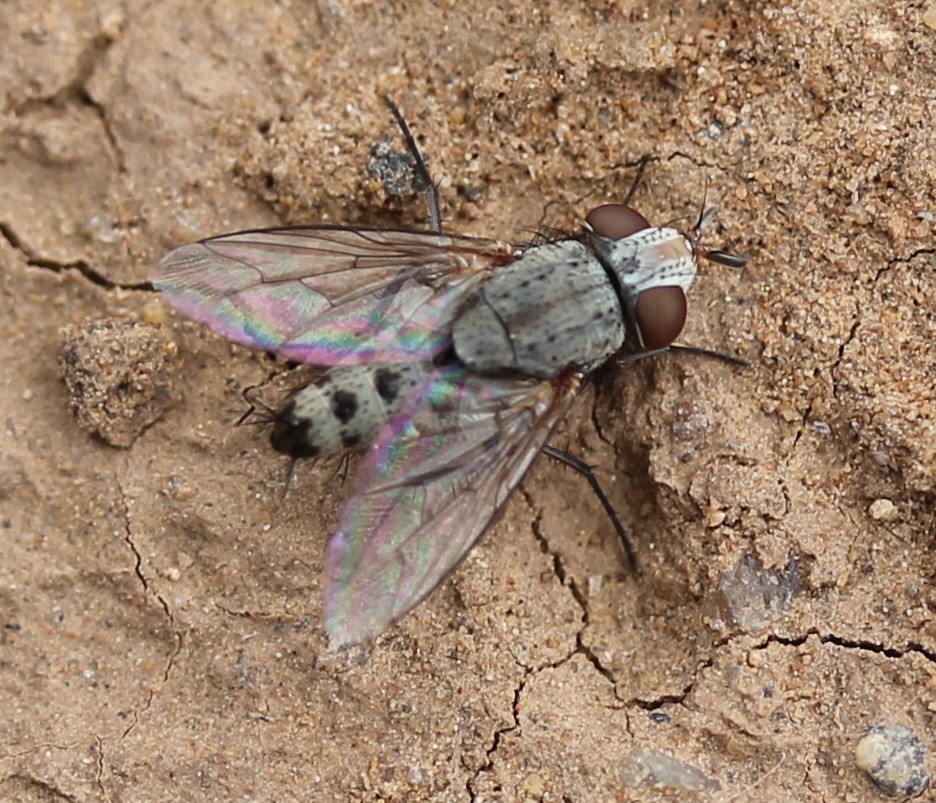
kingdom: Animalia
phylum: Arthropoda
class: Insecta
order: Diptera
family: Sarcophagidae
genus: Taxigramma
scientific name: Taxigramma hilarella
